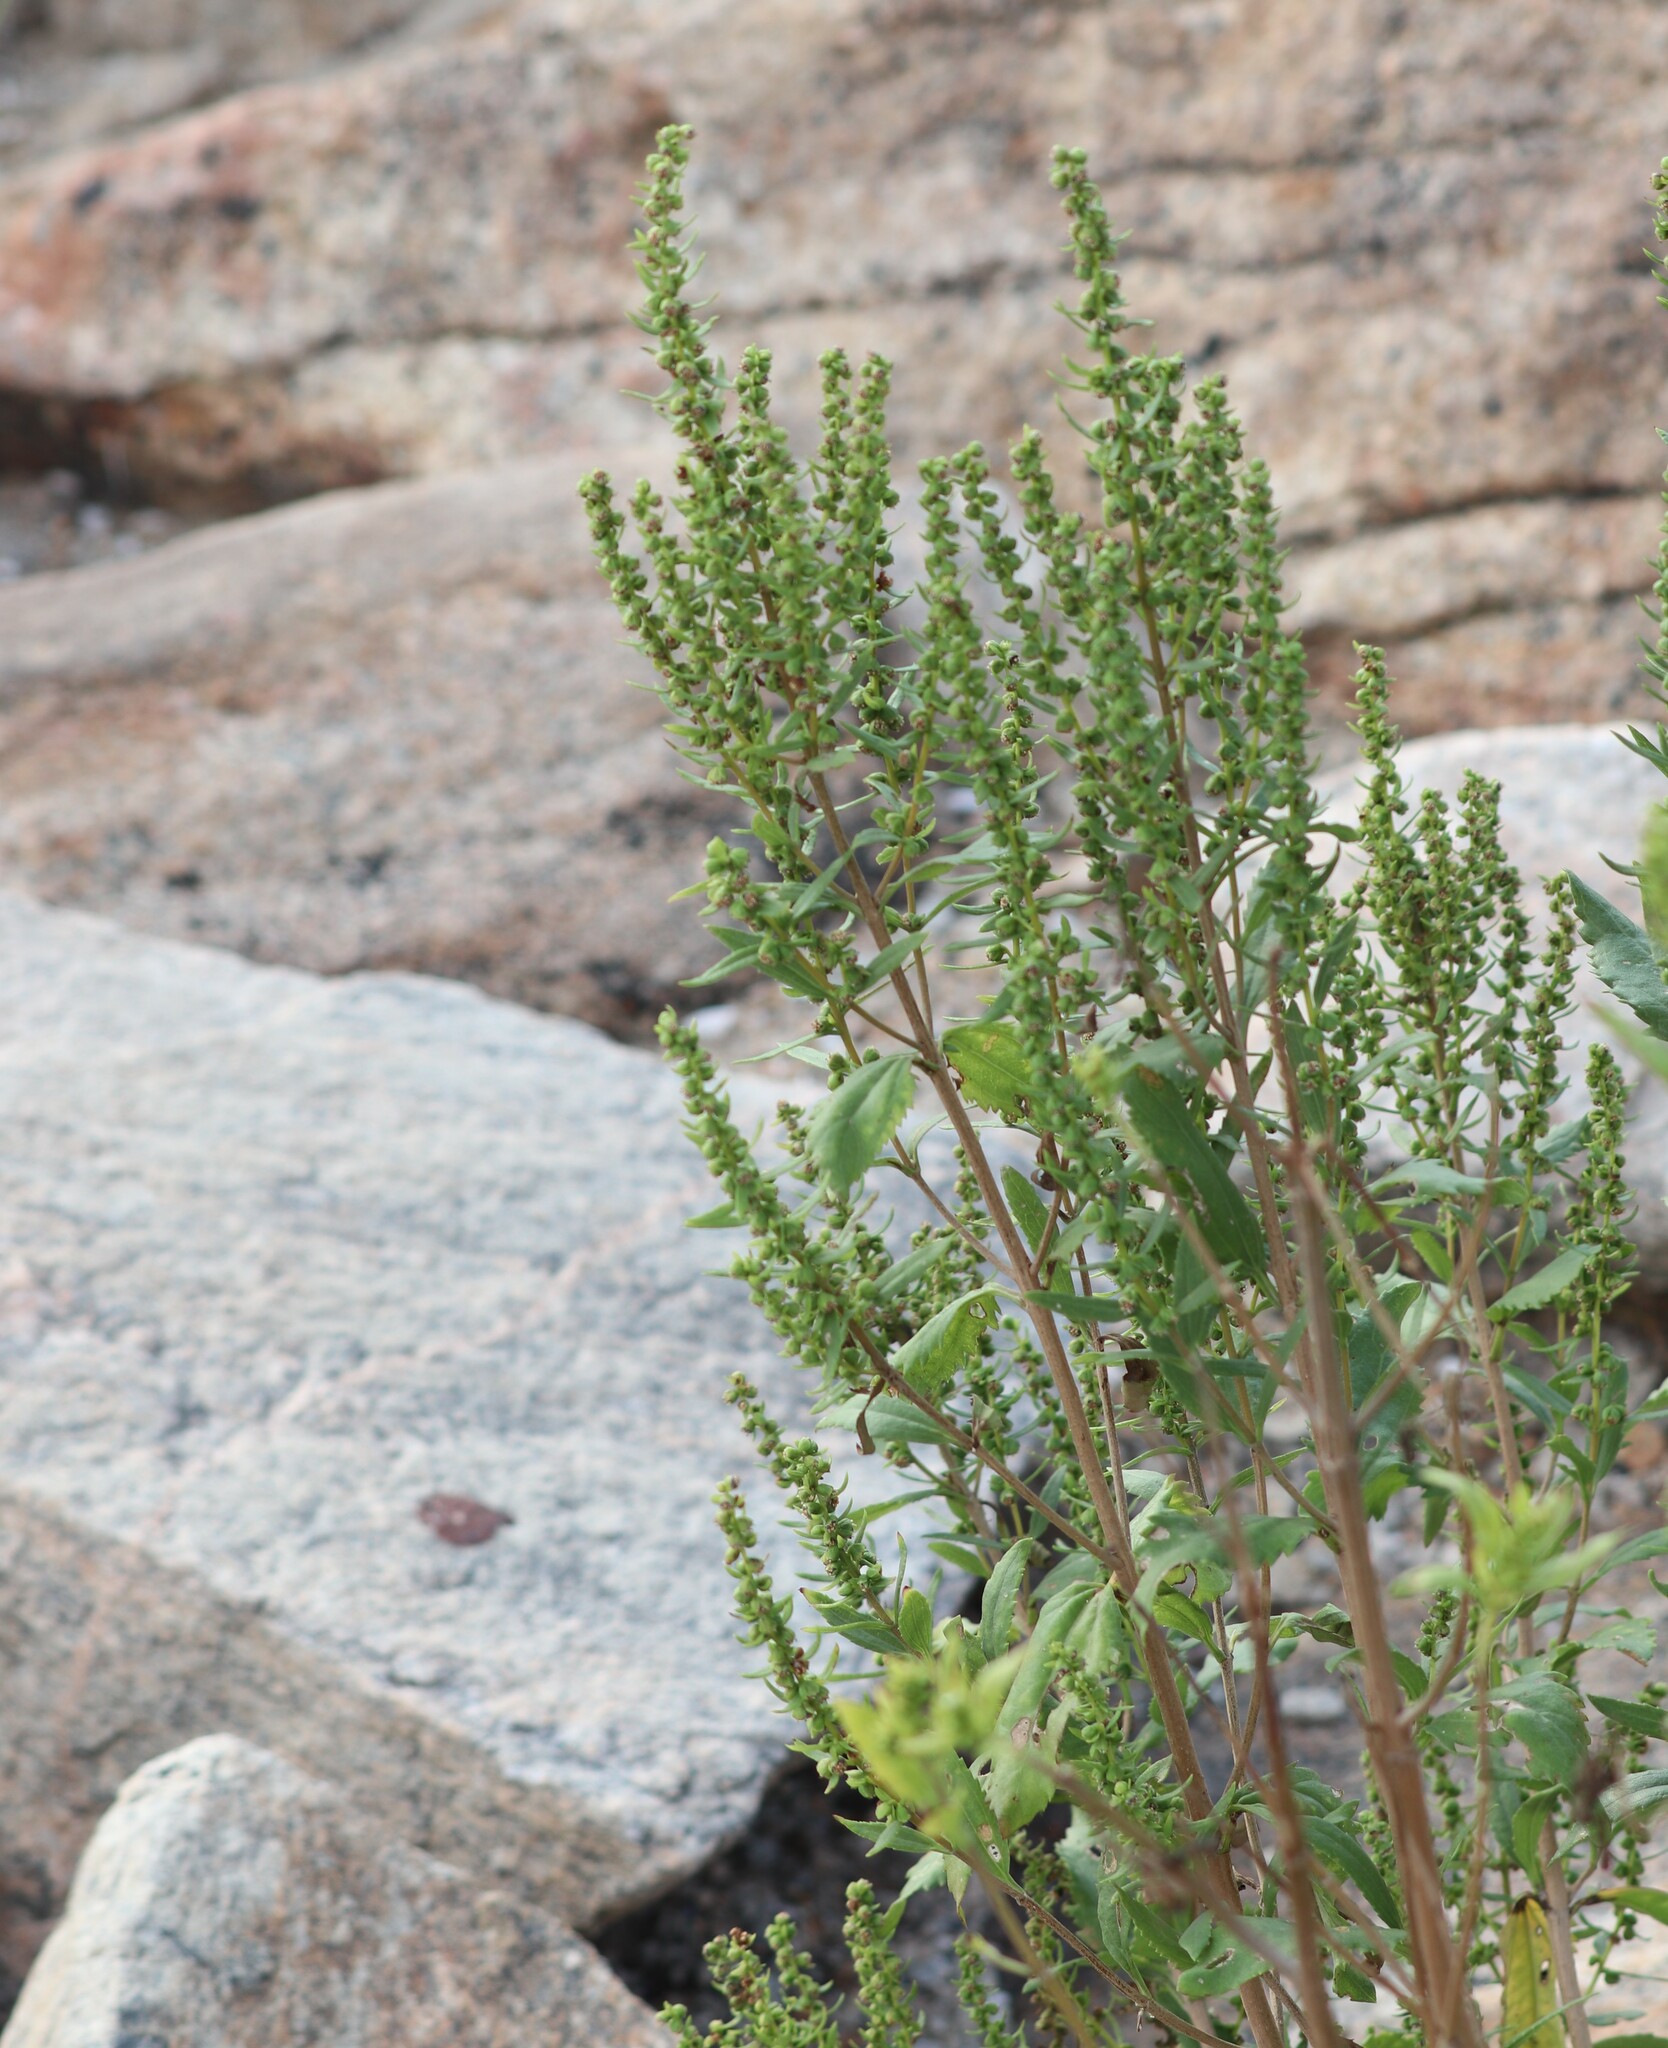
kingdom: Plantae
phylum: Tracheophyta
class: Magnoliopsida
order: Asterales
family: Asteraceae
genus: Iva
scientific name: Iva frutescens
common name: Big-leaved marsh-elder
